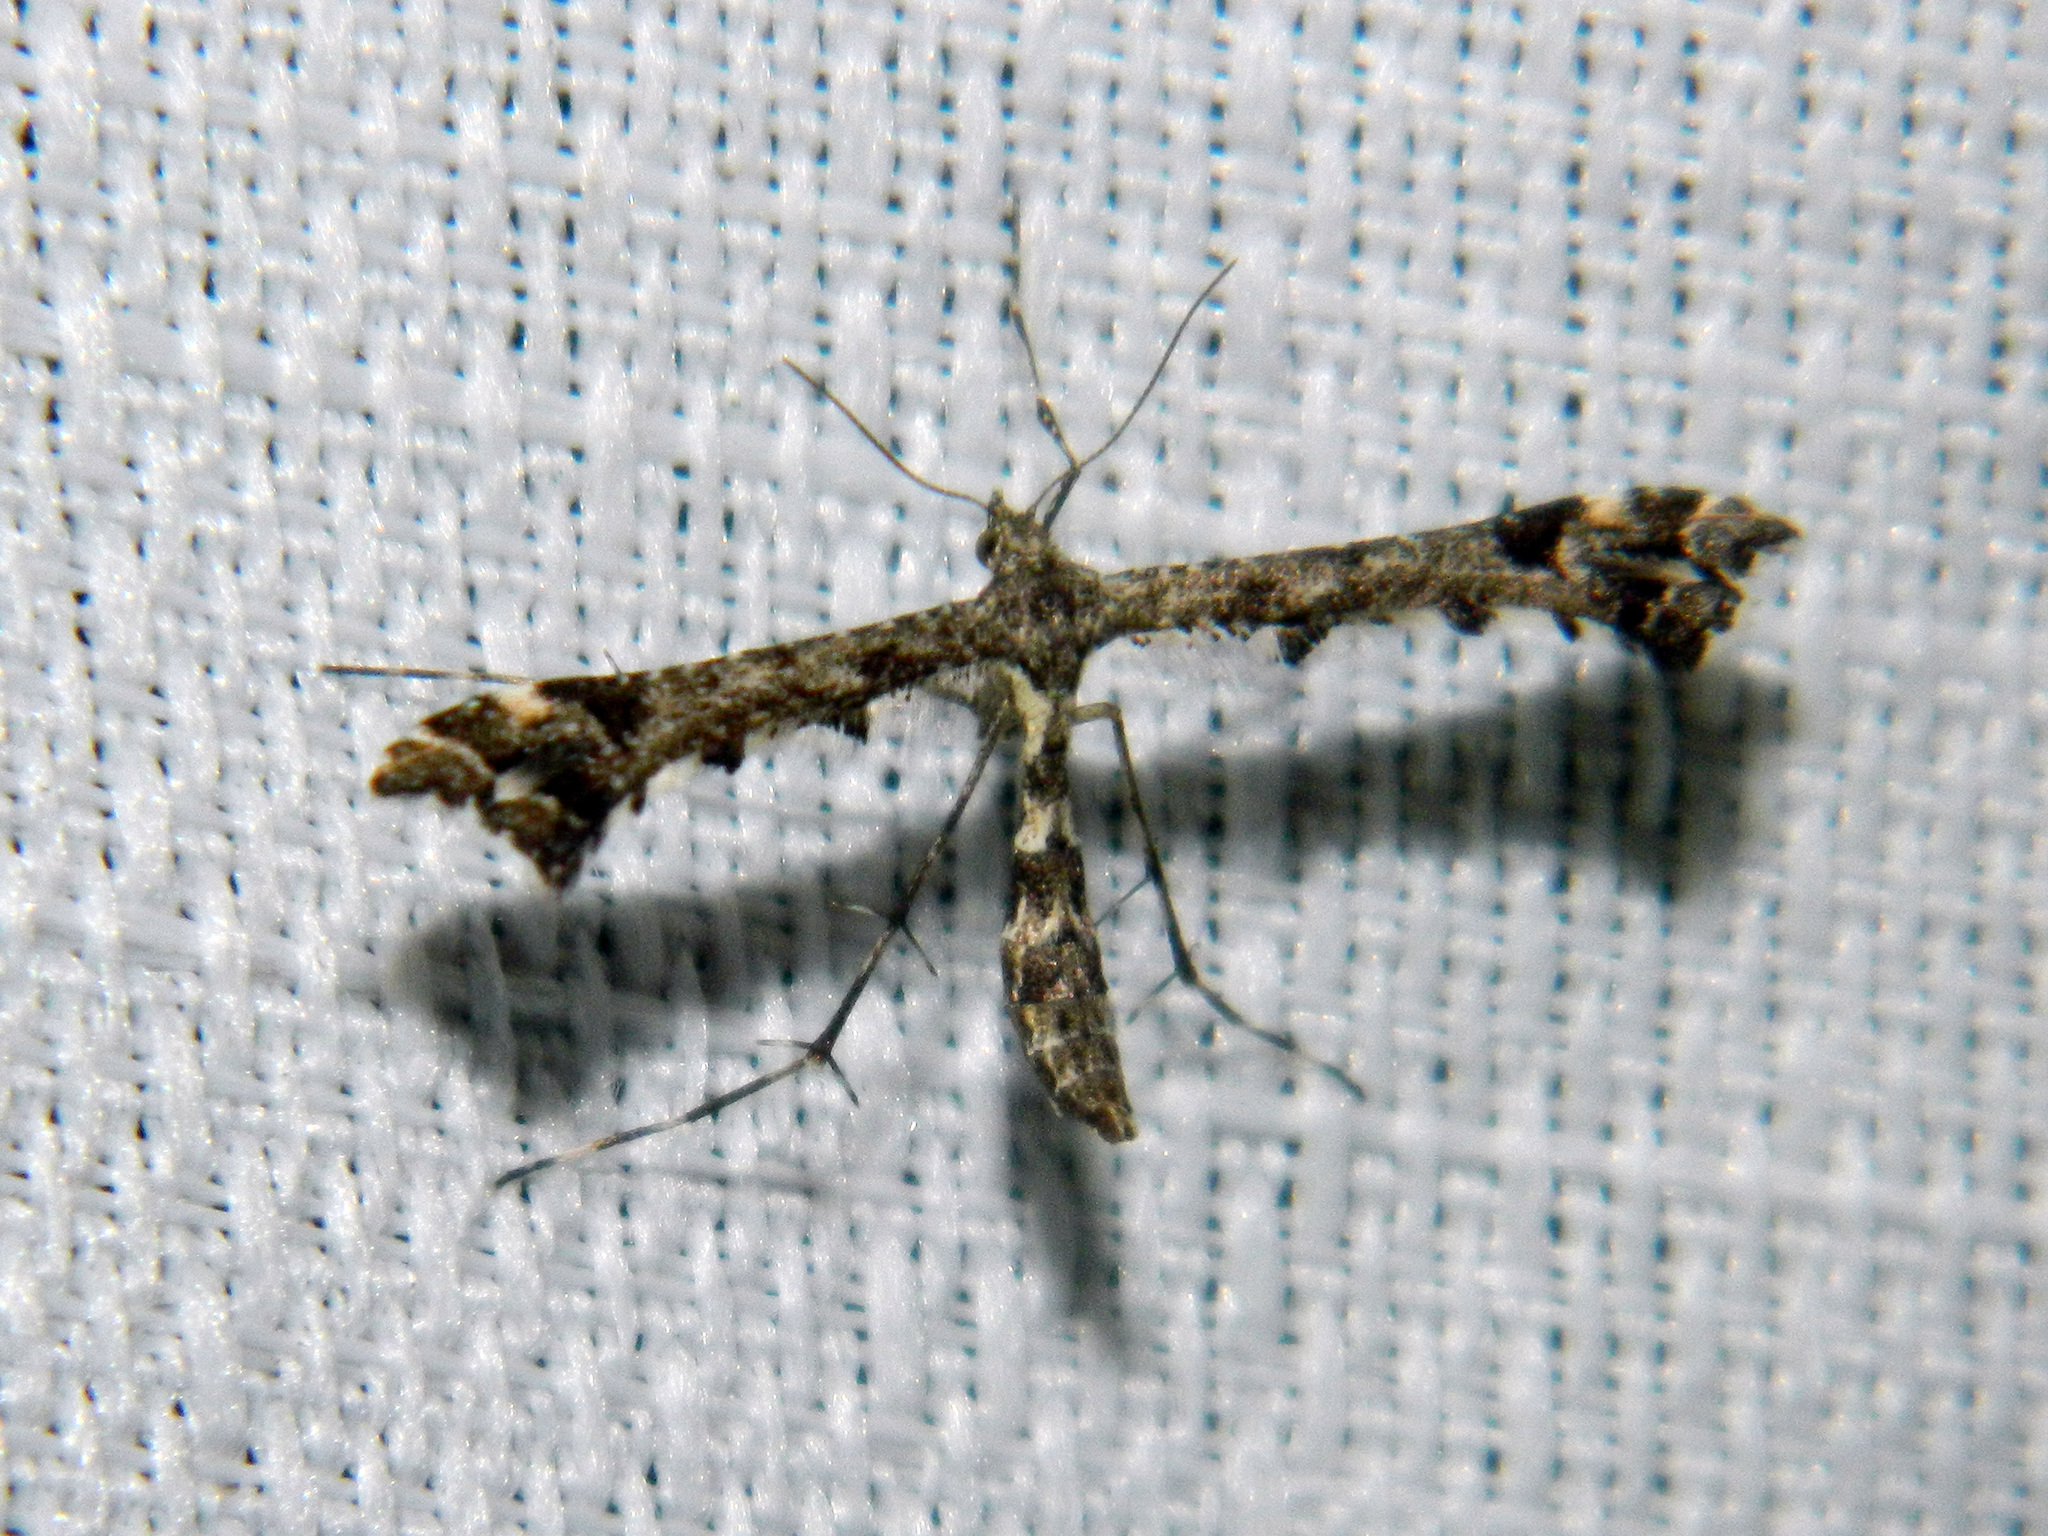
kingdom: Animalia
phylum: Arthropoda
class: Insecta
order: Lepidoptera
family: Pterophoridae
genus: Amblyptilia
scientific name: Amblyptilia pica
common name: Geranium plume moth
